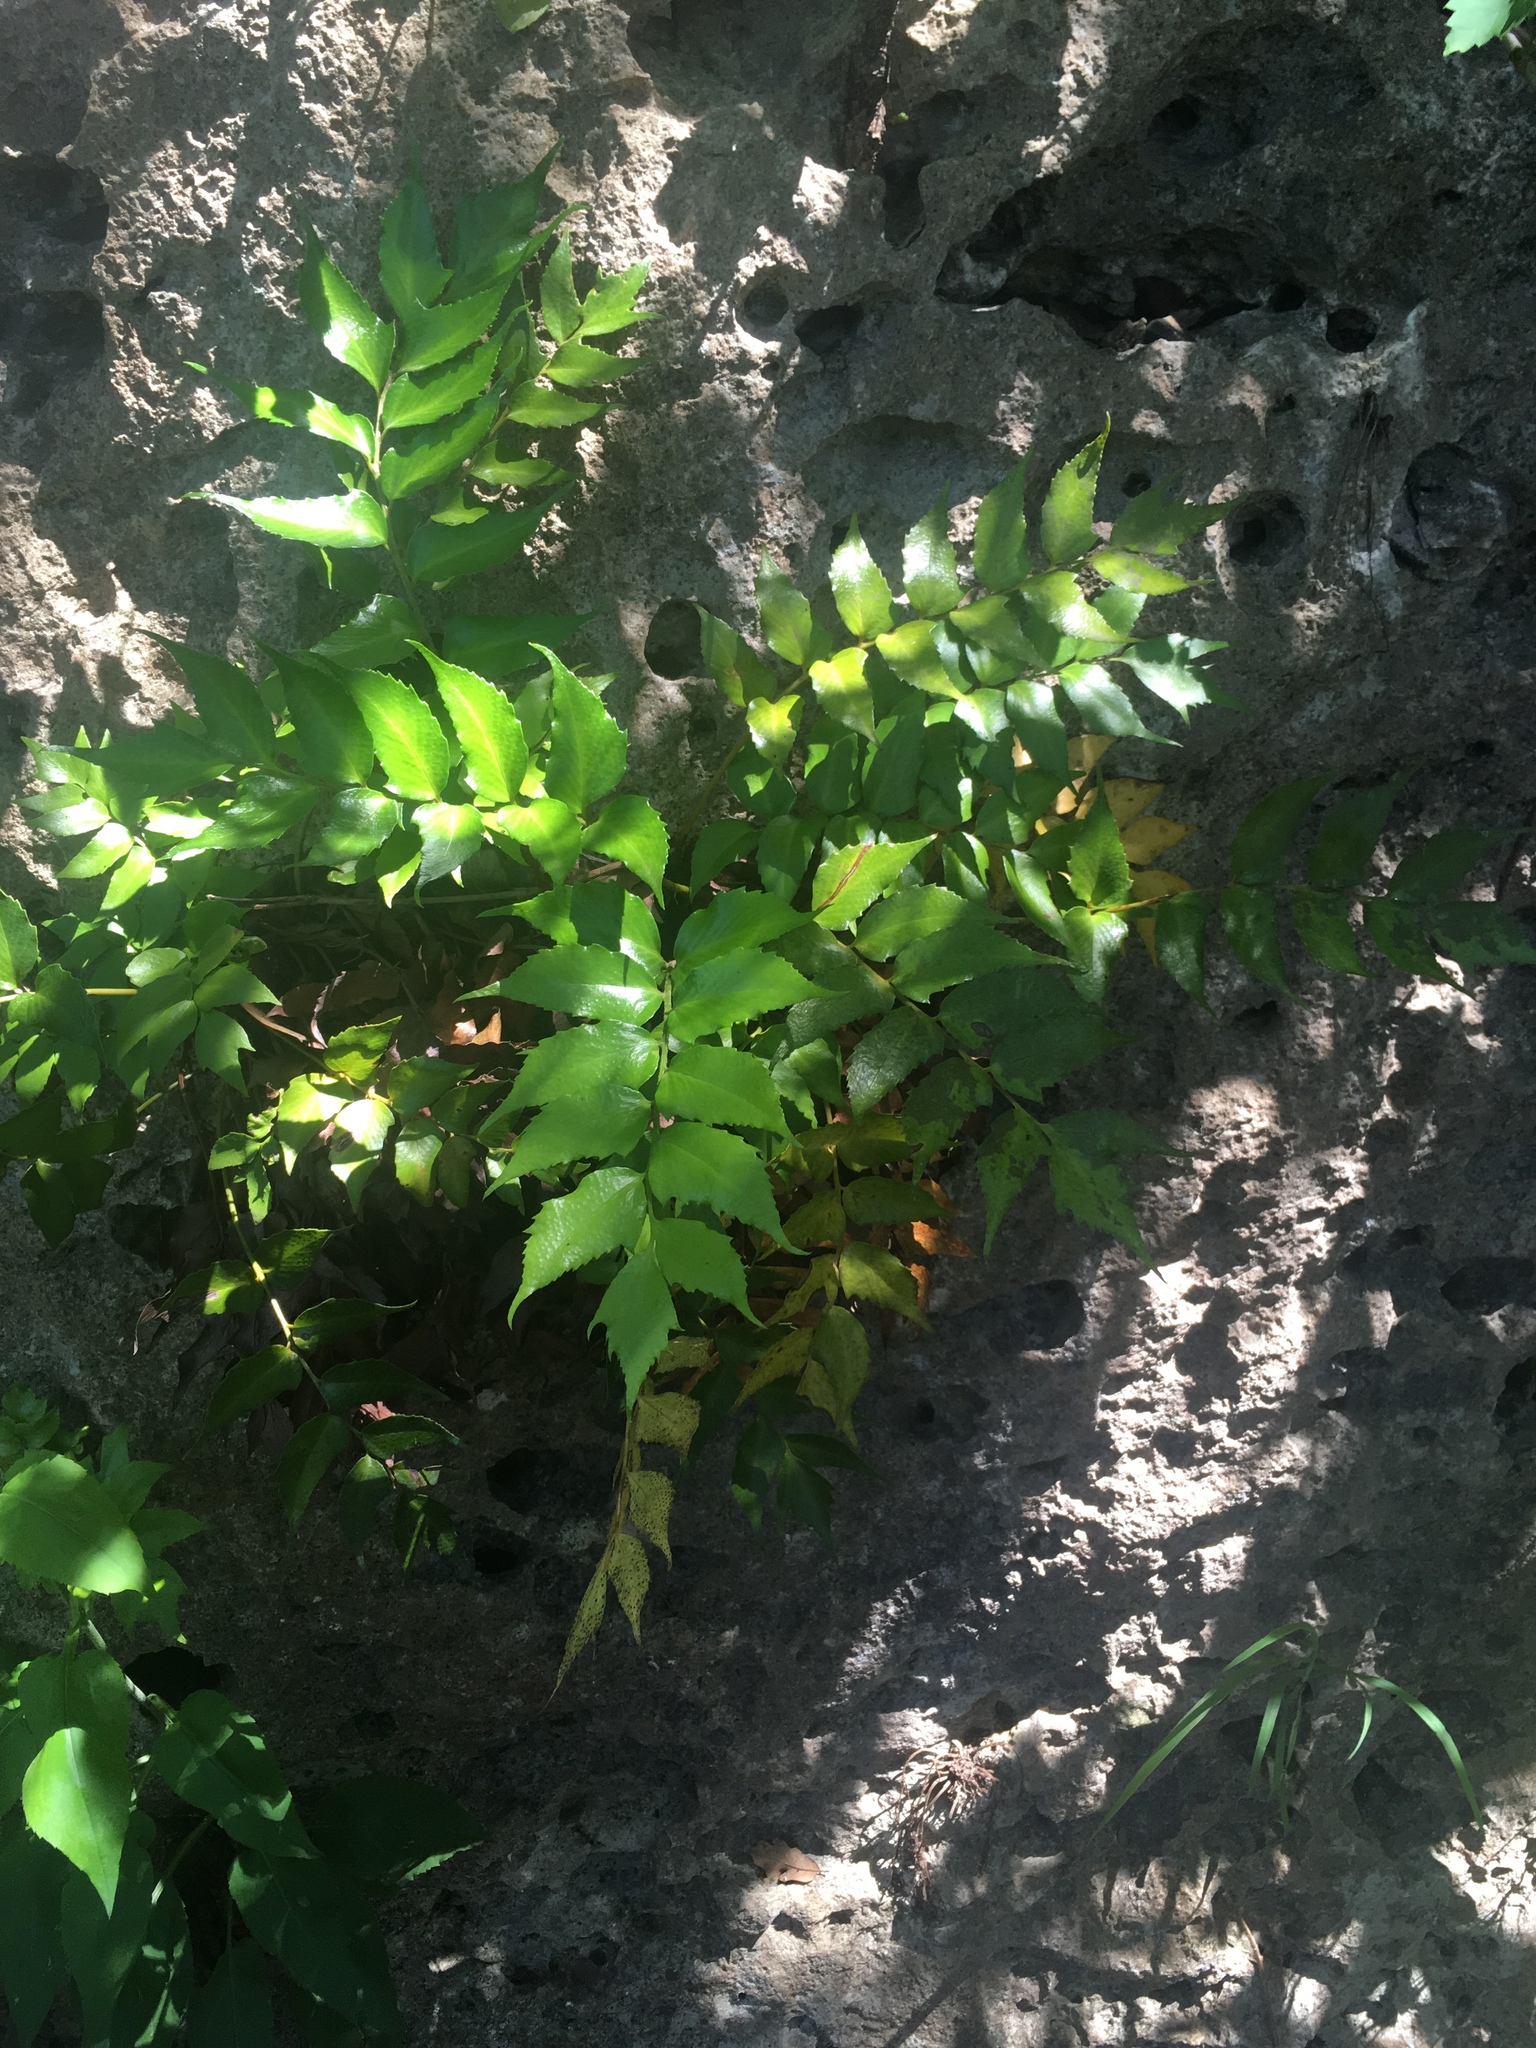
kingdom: Plantae
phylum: Tracheophyta
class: Polypodiopsida
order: Polypodiales
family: Dryopteridaceae
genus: Cyrtomium
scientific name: Cyrtomium falcatum
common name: House holly-fern
